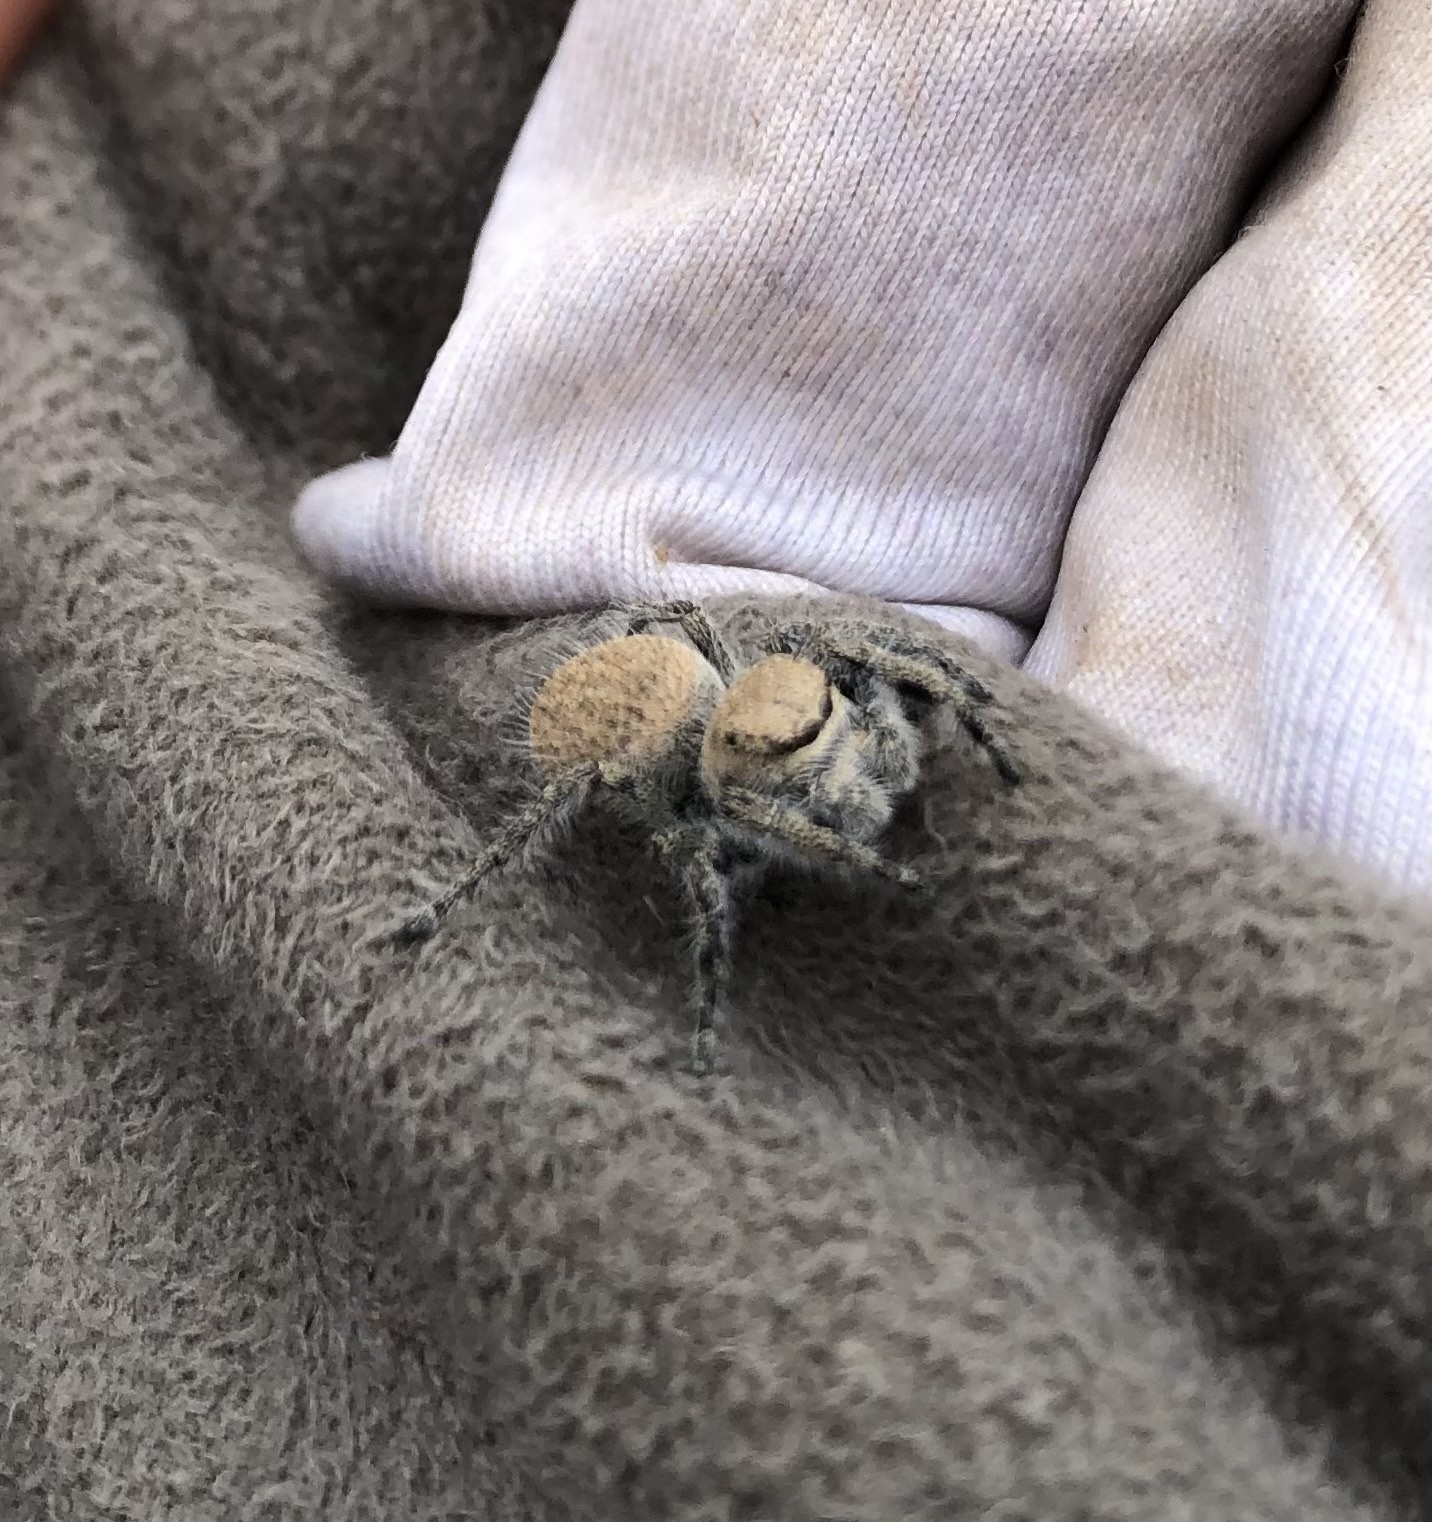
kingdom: Animalia
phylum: Arthropoda
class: Arachnida
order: Araneae
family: Salticidae
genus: Phidippus
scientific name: Phidippus octopunctatus
